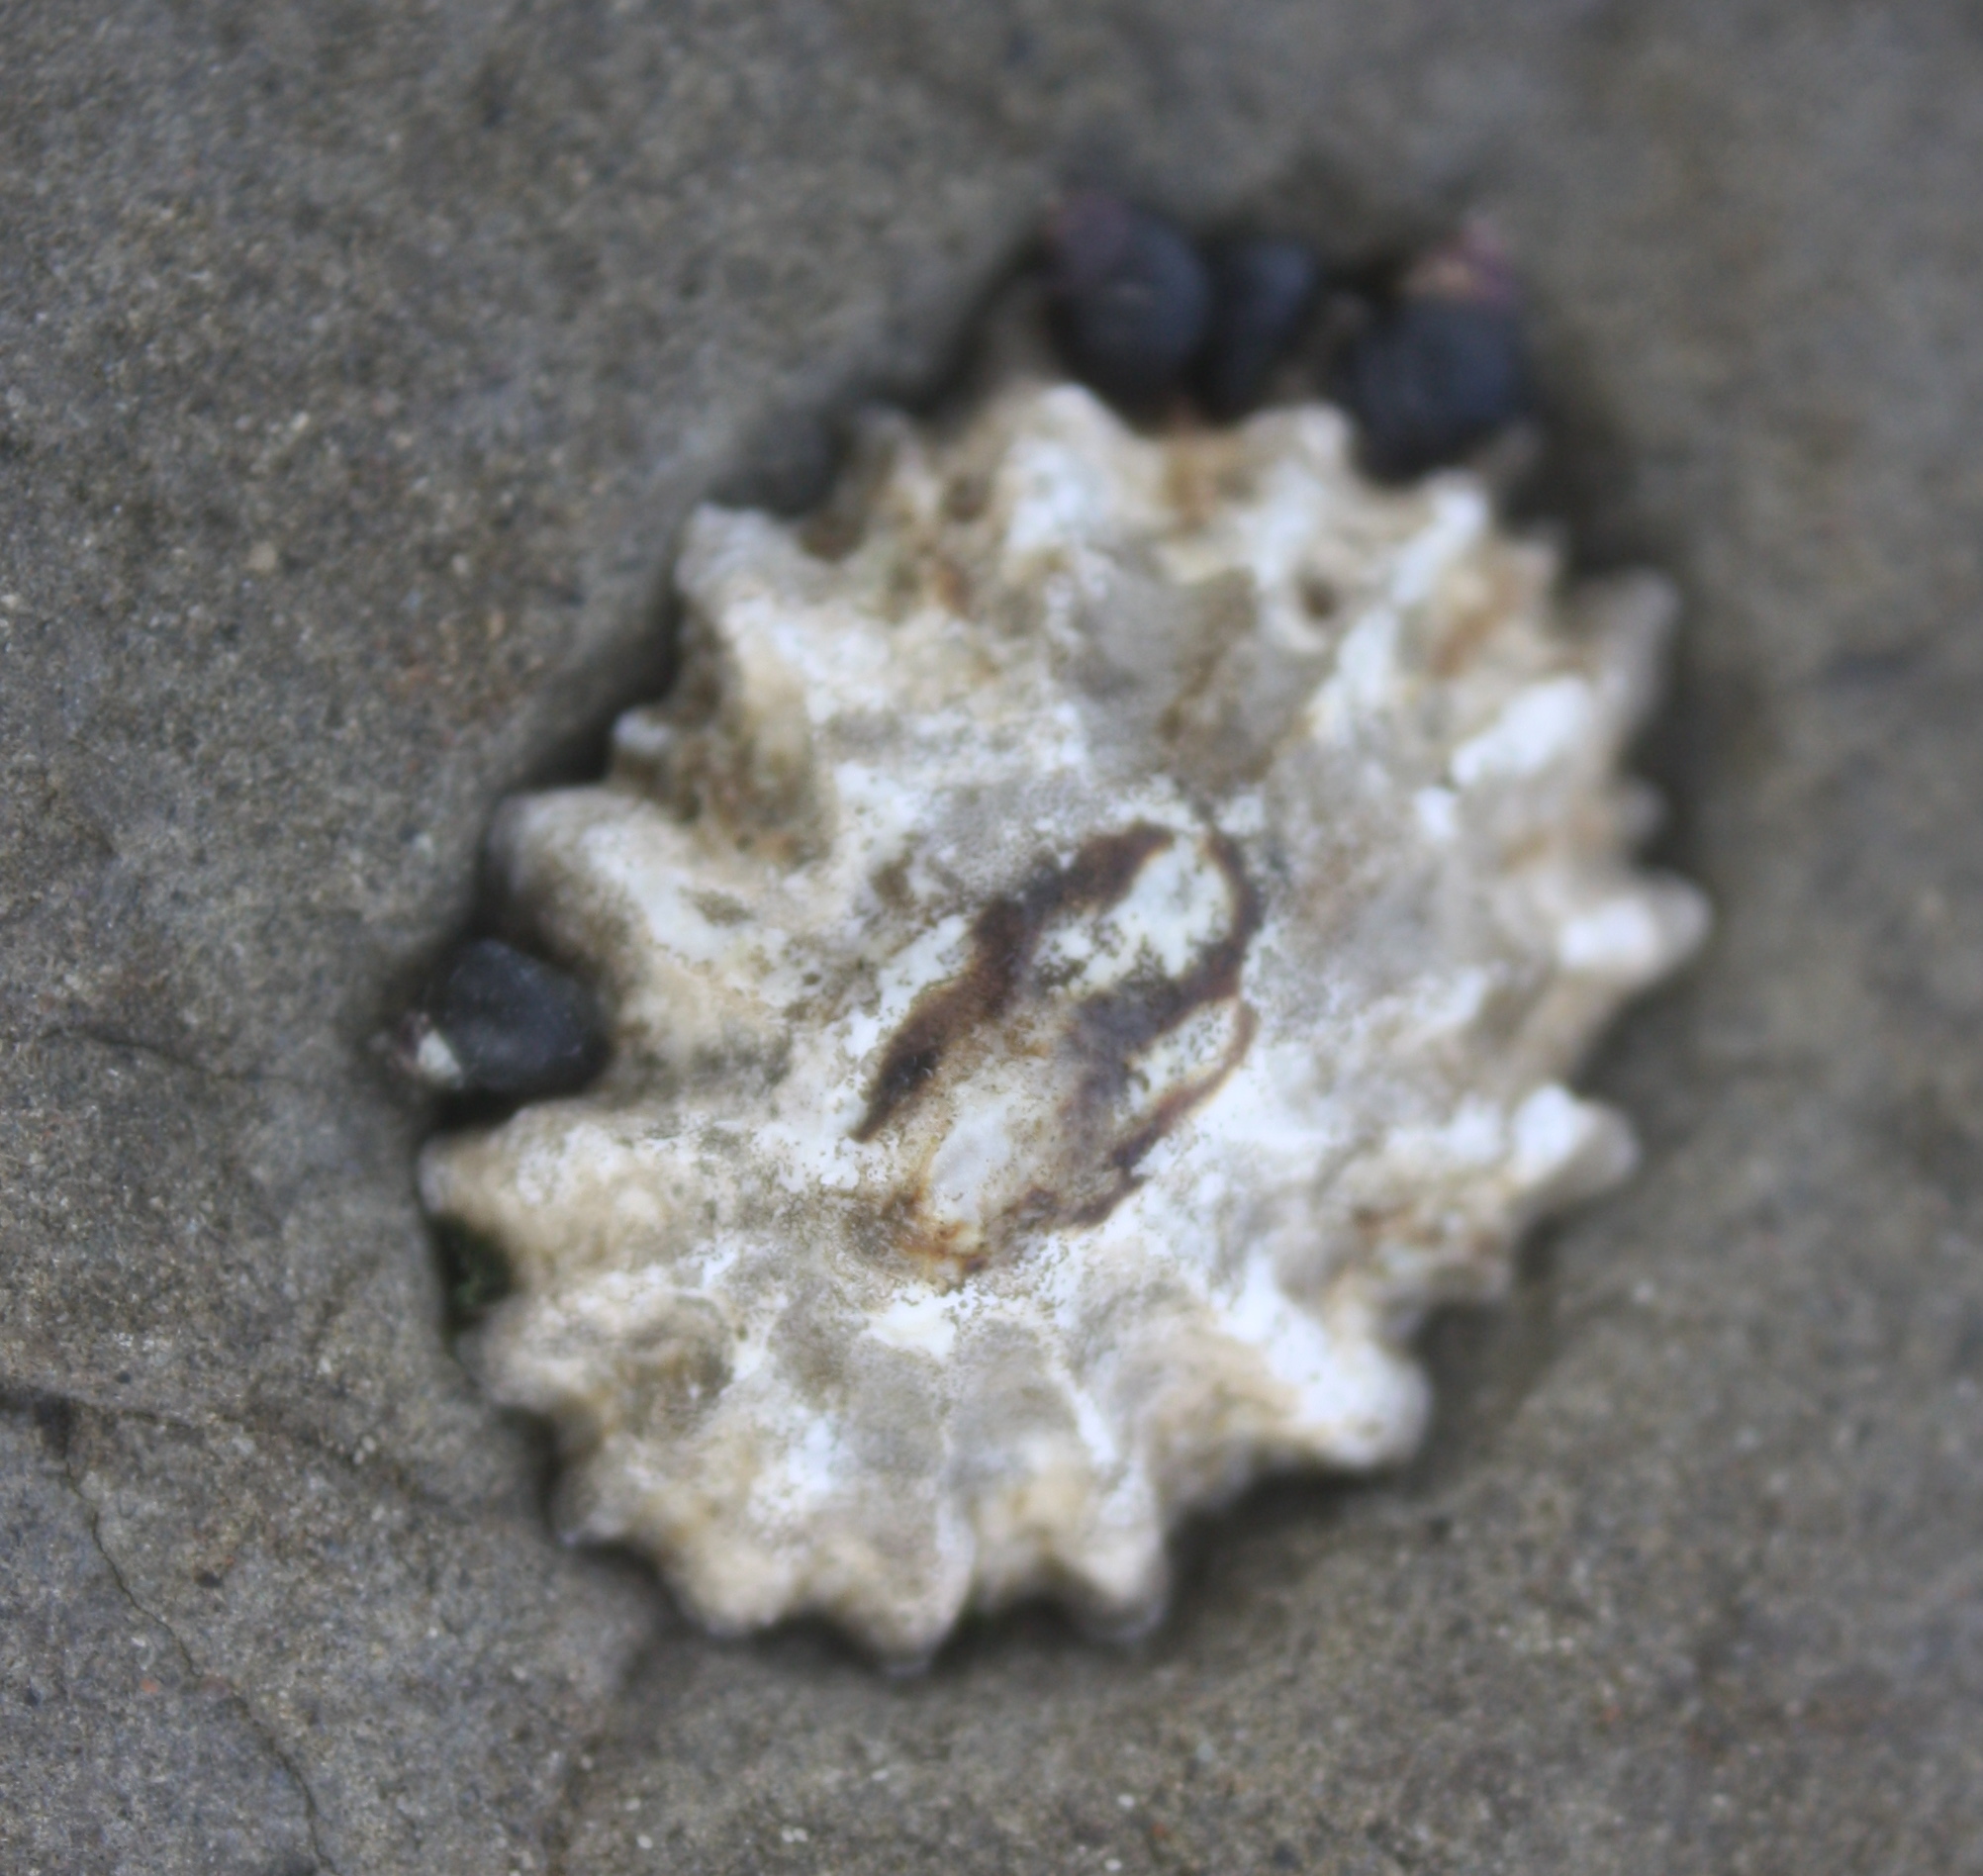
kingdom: Animalia
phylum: Mollusca
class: Gastropoda
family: Lottiidae
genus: Lottia
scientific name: Lottia scabra
